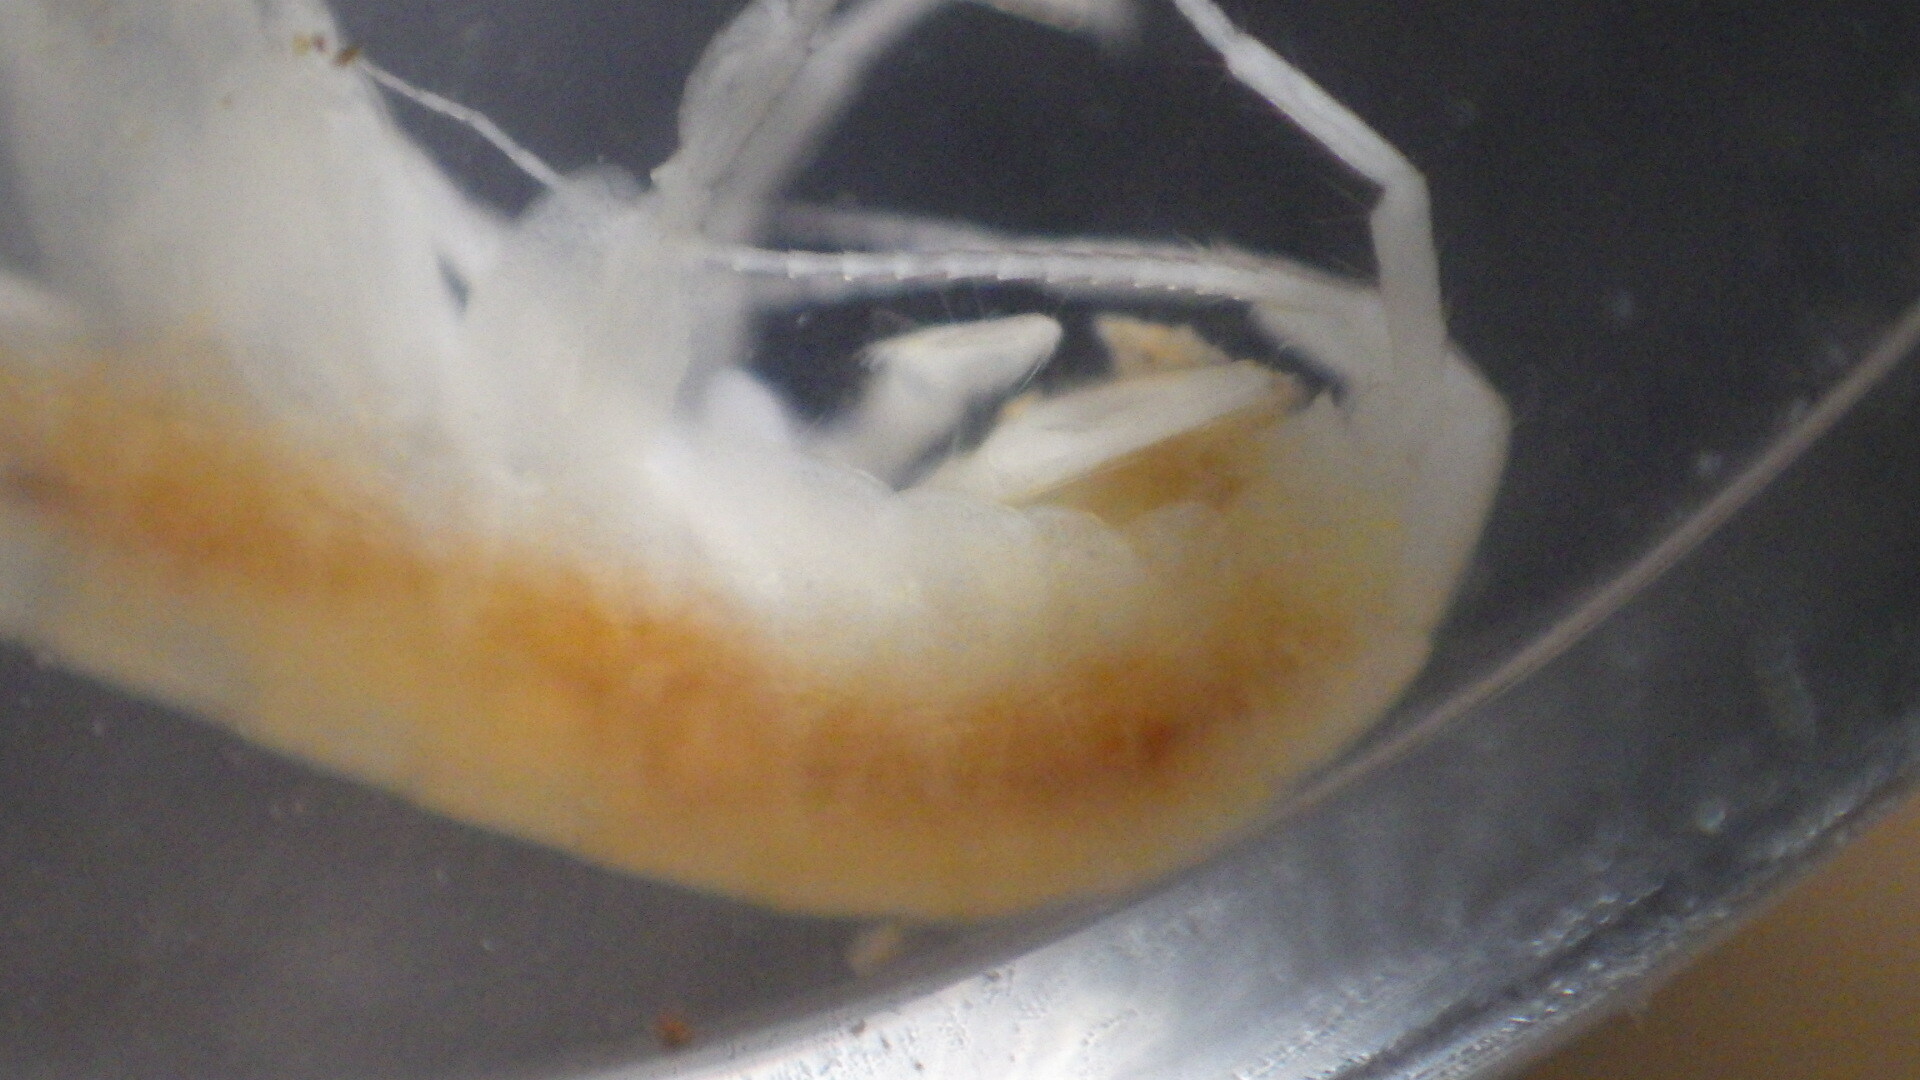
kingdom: Animalia
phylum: Arthropoda
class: Malacostraca
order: Amphipoda
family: Crangonyctidae
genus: Stygobromus
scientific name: Stygobromus allegheniensis
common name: Allegheny cave stygobromid
